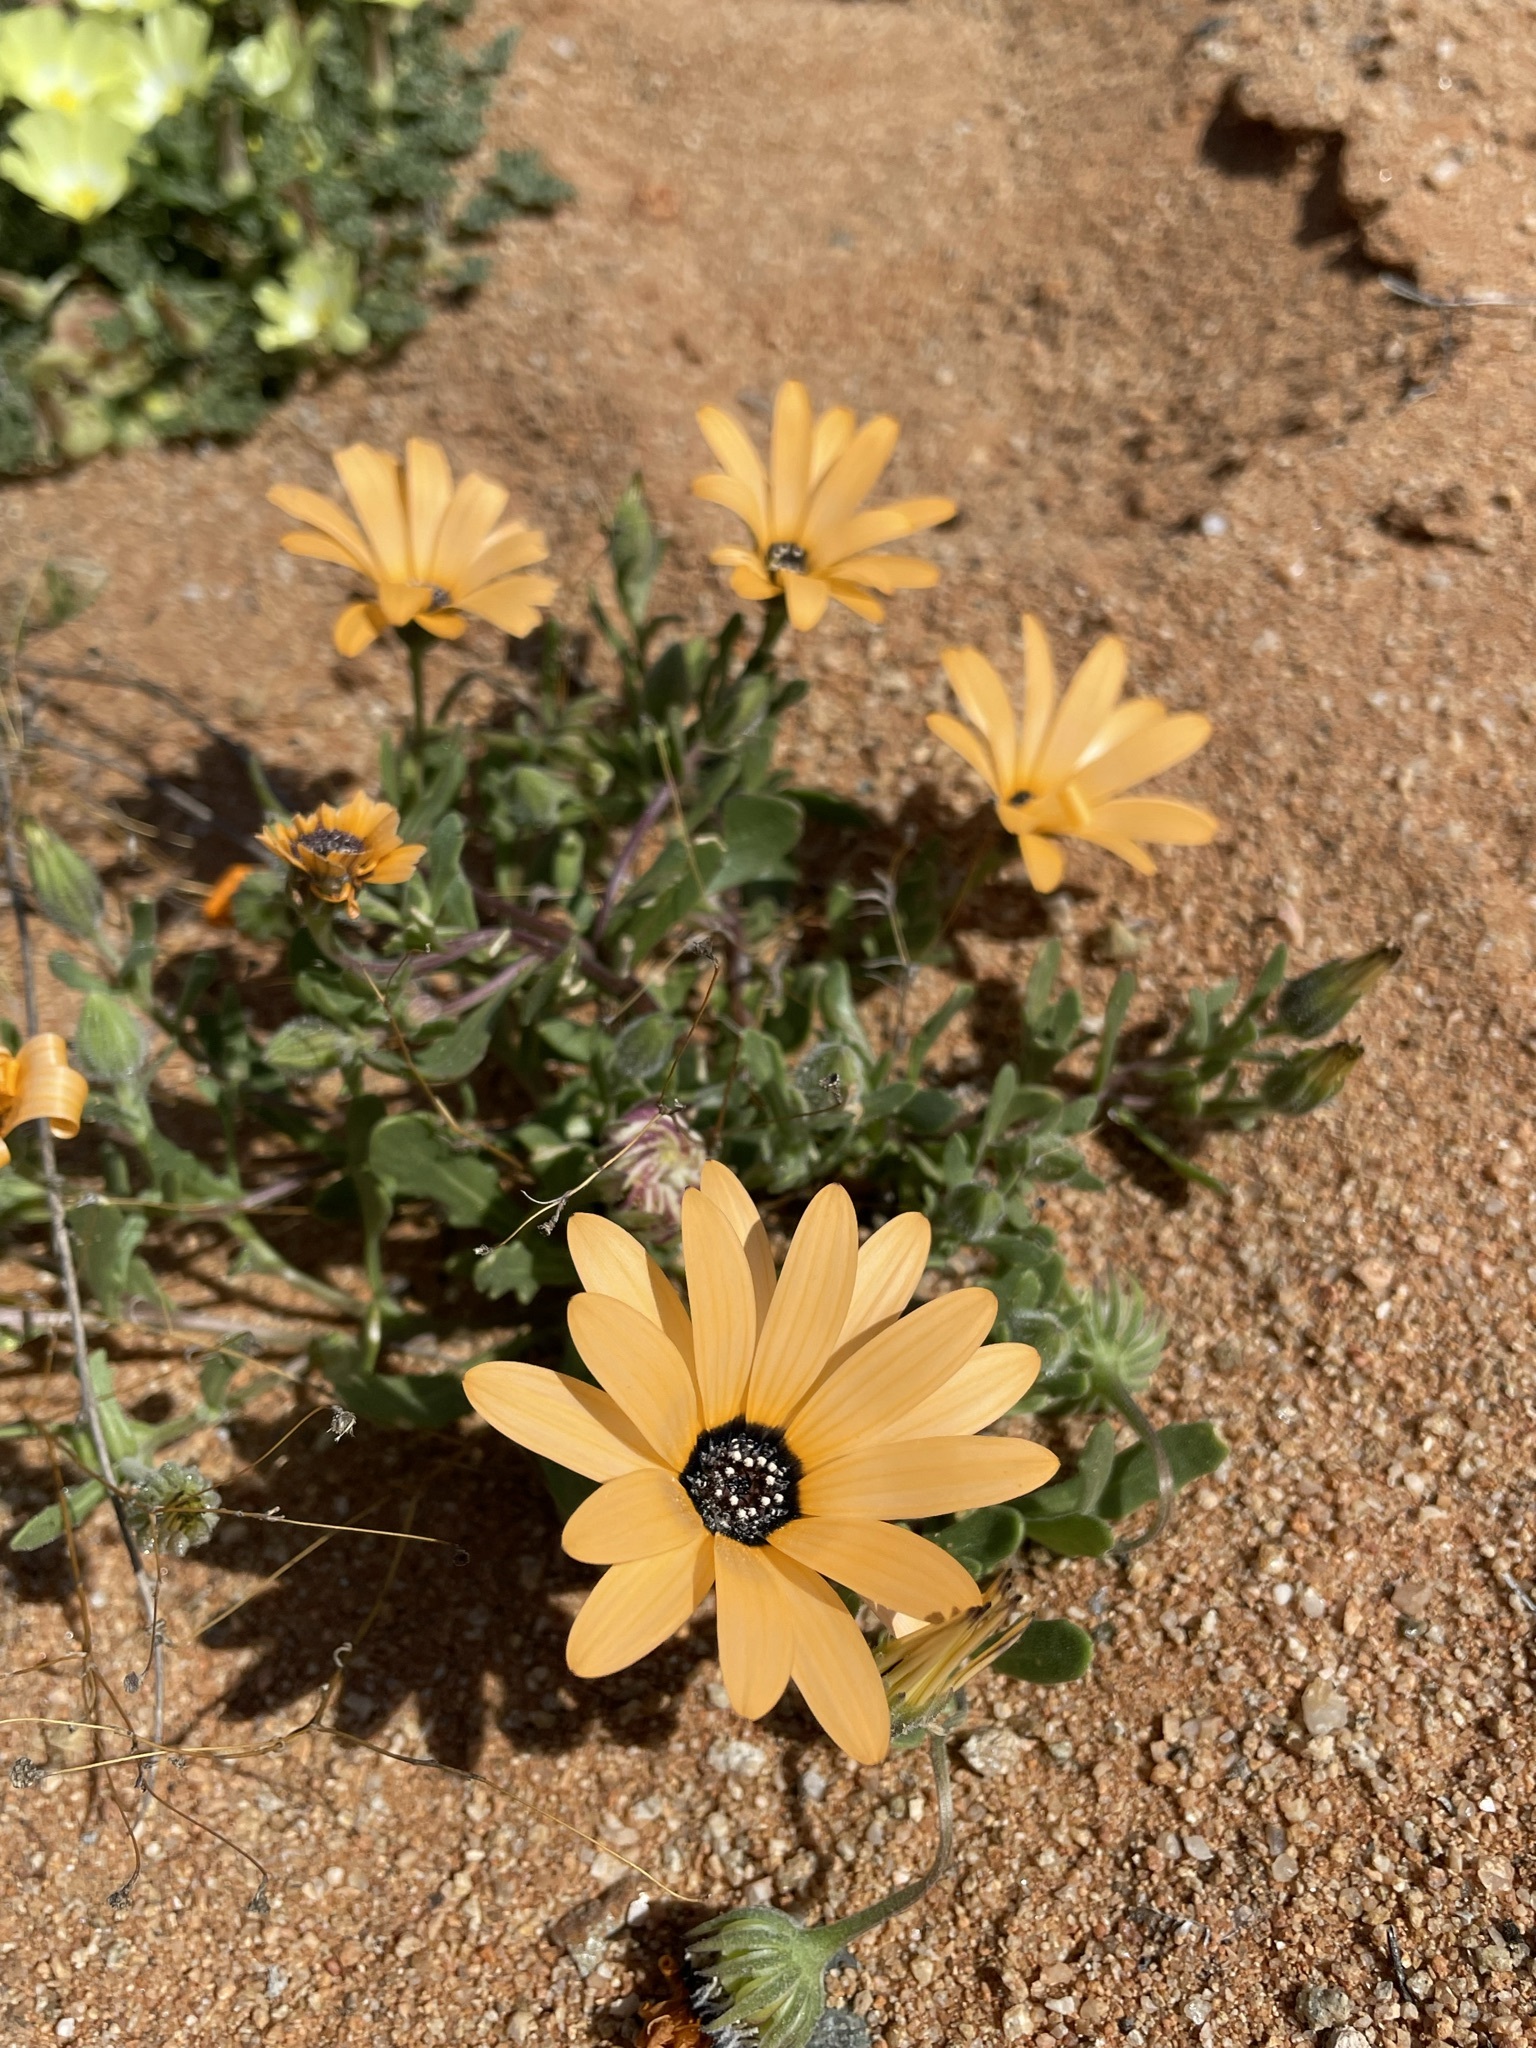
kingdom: Plantae
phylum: Tracheophyta
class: Magnoliopsida
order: Asterales
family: Asteraceae
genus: Dimorphotheca
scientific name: Dimorphotheca sinuata
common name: Glandular cape marigold
